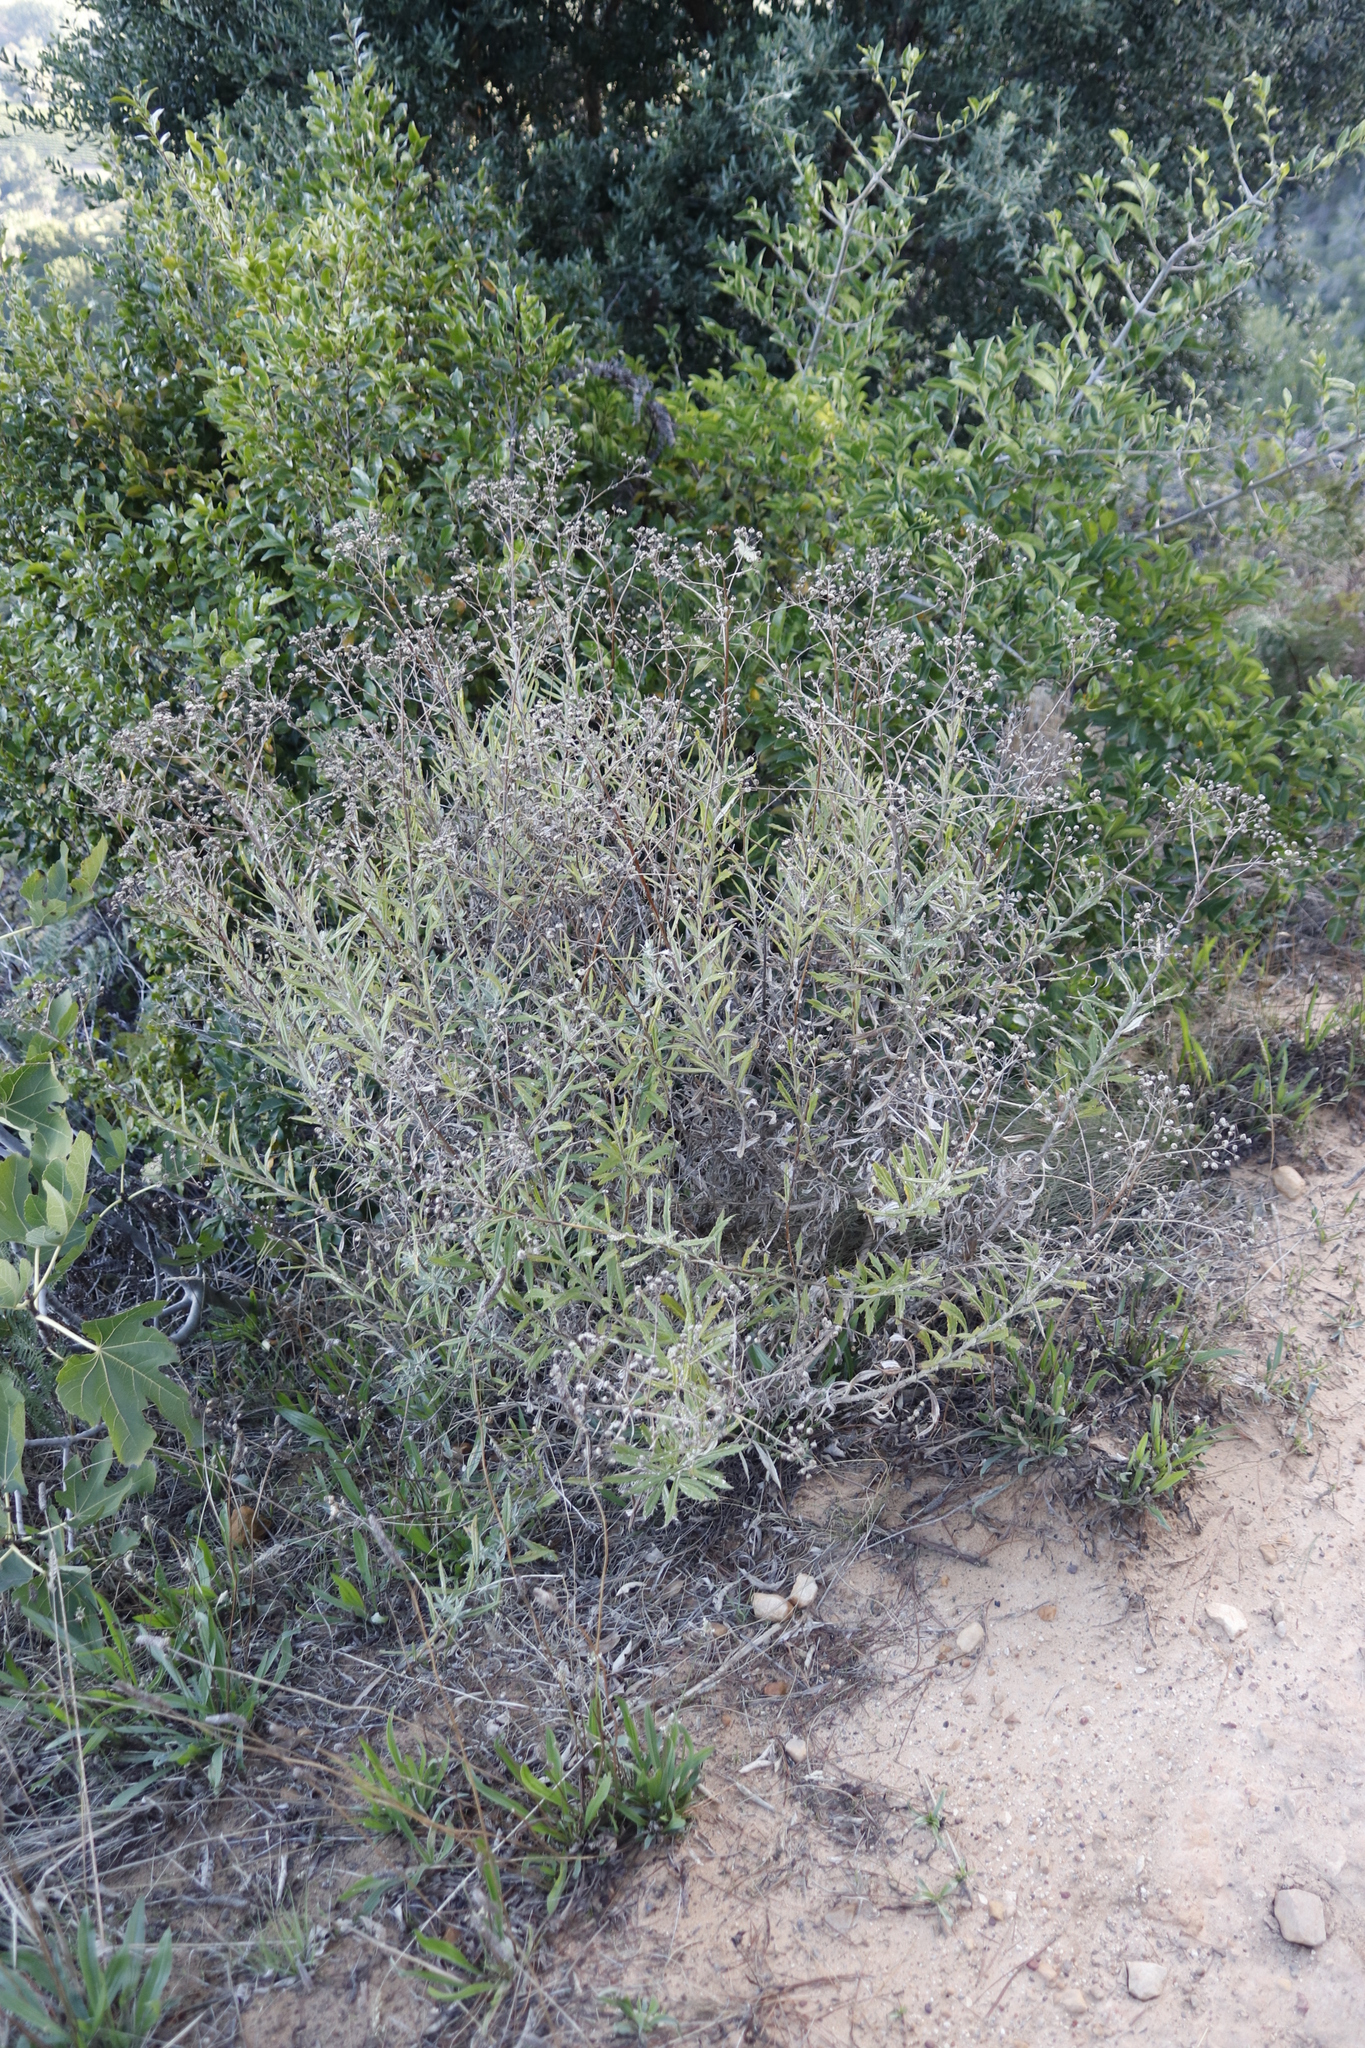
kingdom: Plantae
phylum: Tracheophyta
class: Magnoliopsida
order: Asterales
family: Asteraceae
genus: Senecio
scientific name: Senecio pterophorus
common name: Shoddy ragwort
